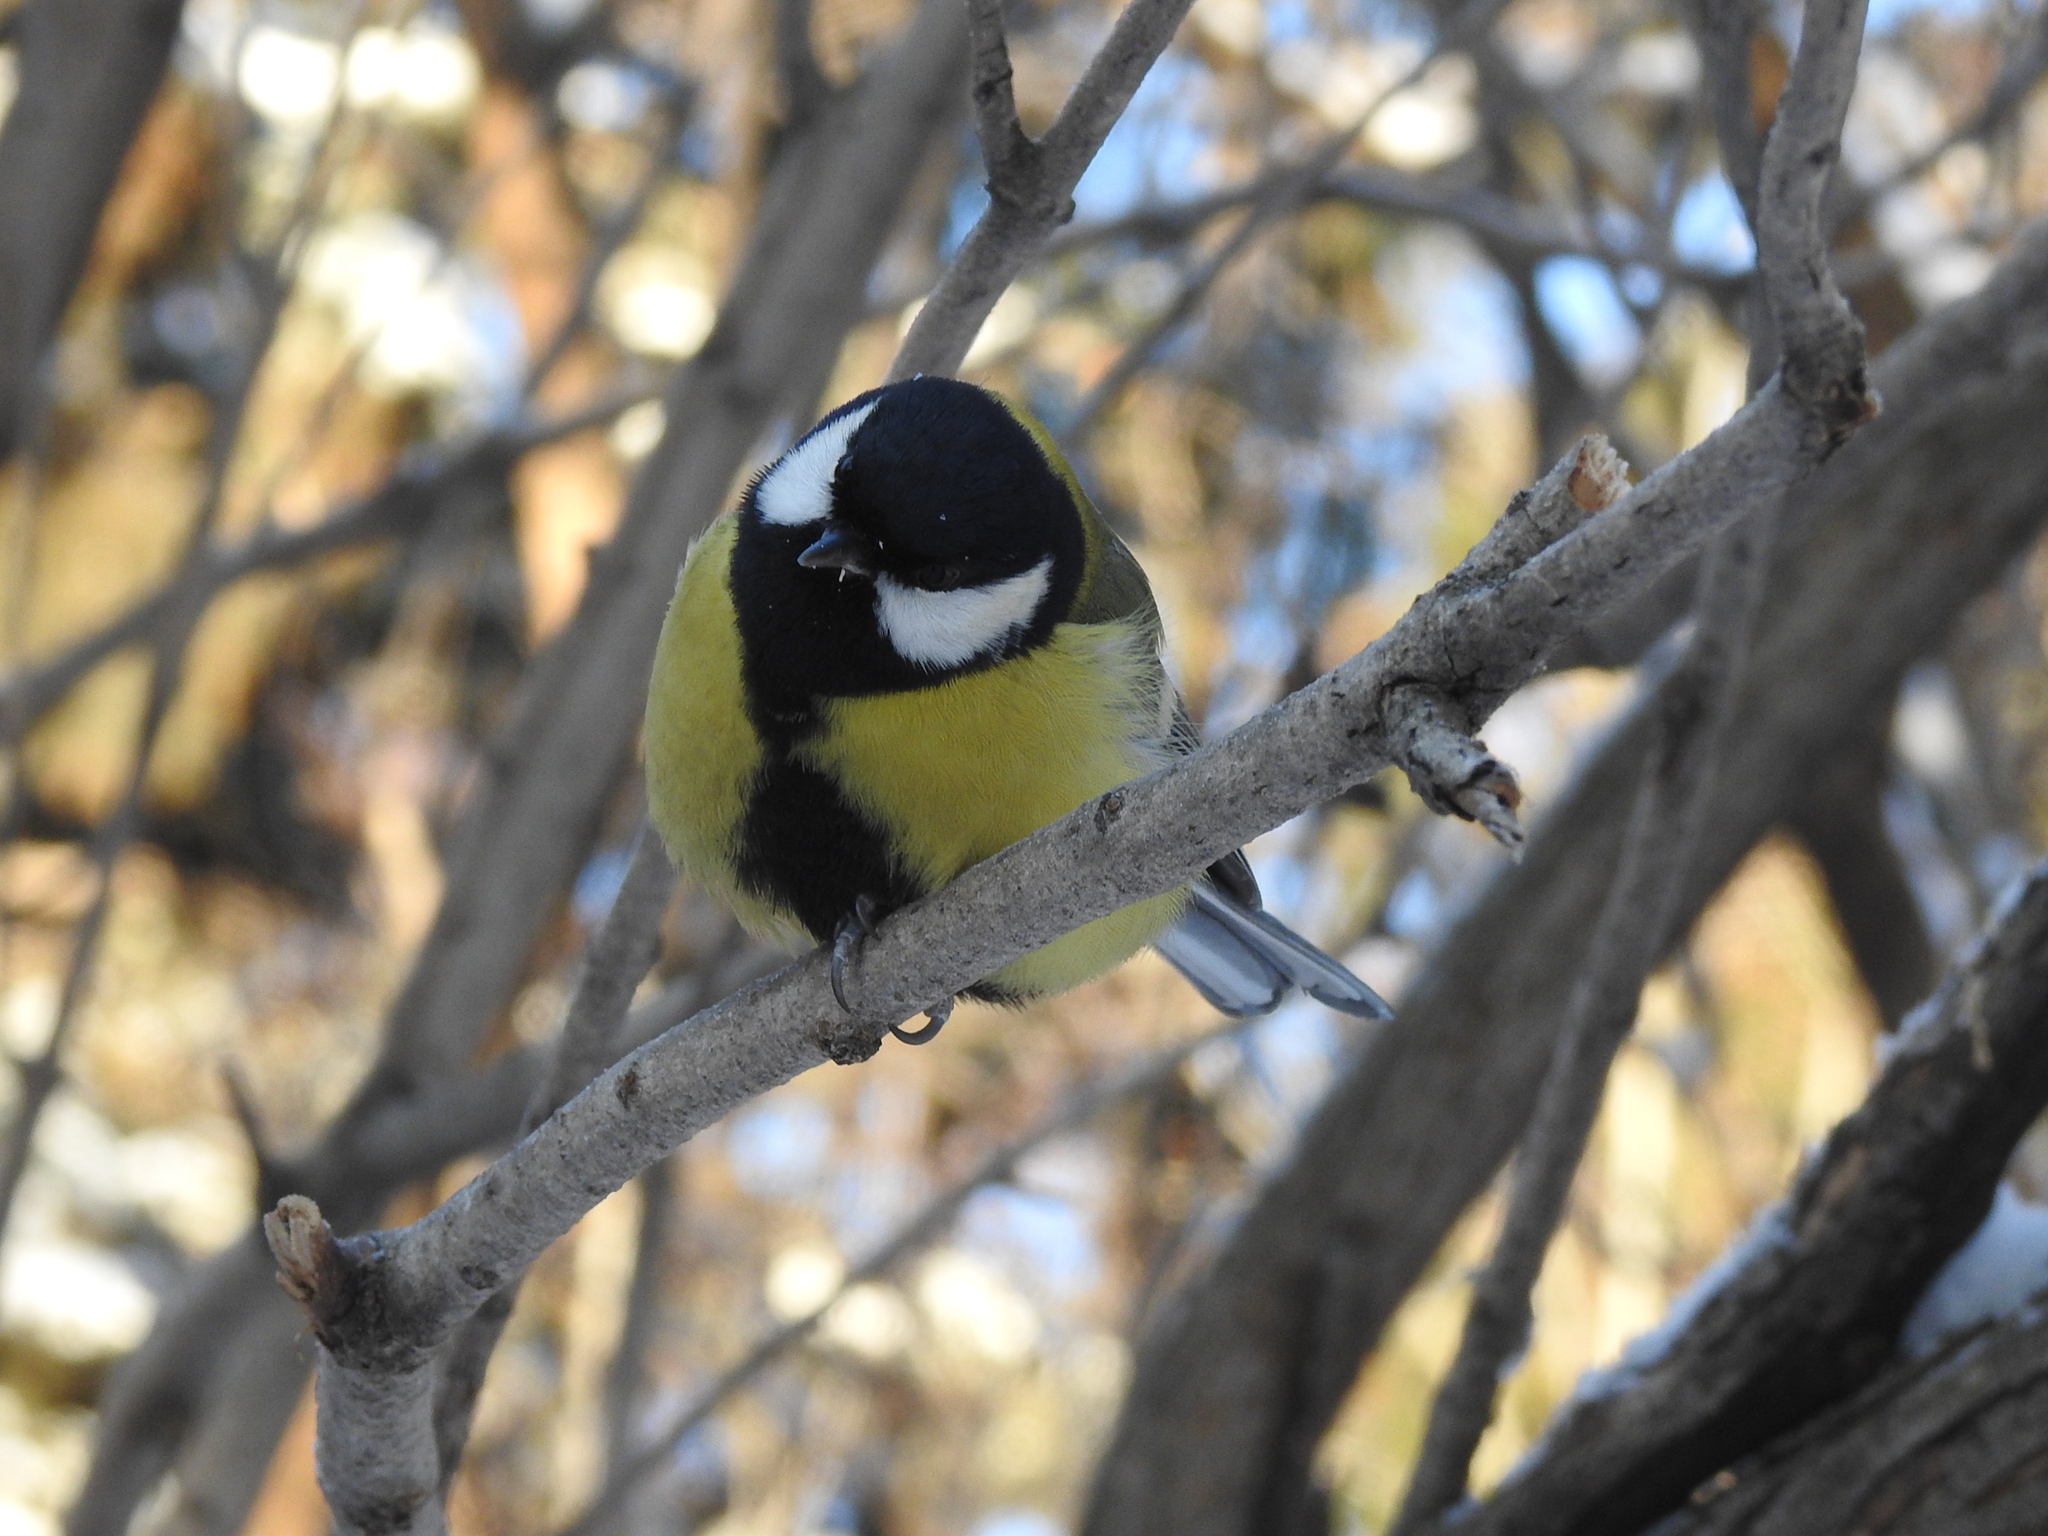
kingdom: Animalia
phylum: Chordata
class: Aves
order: Passeriformes
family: Paridae
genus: Parus
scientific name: Parus major
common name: Great tit
